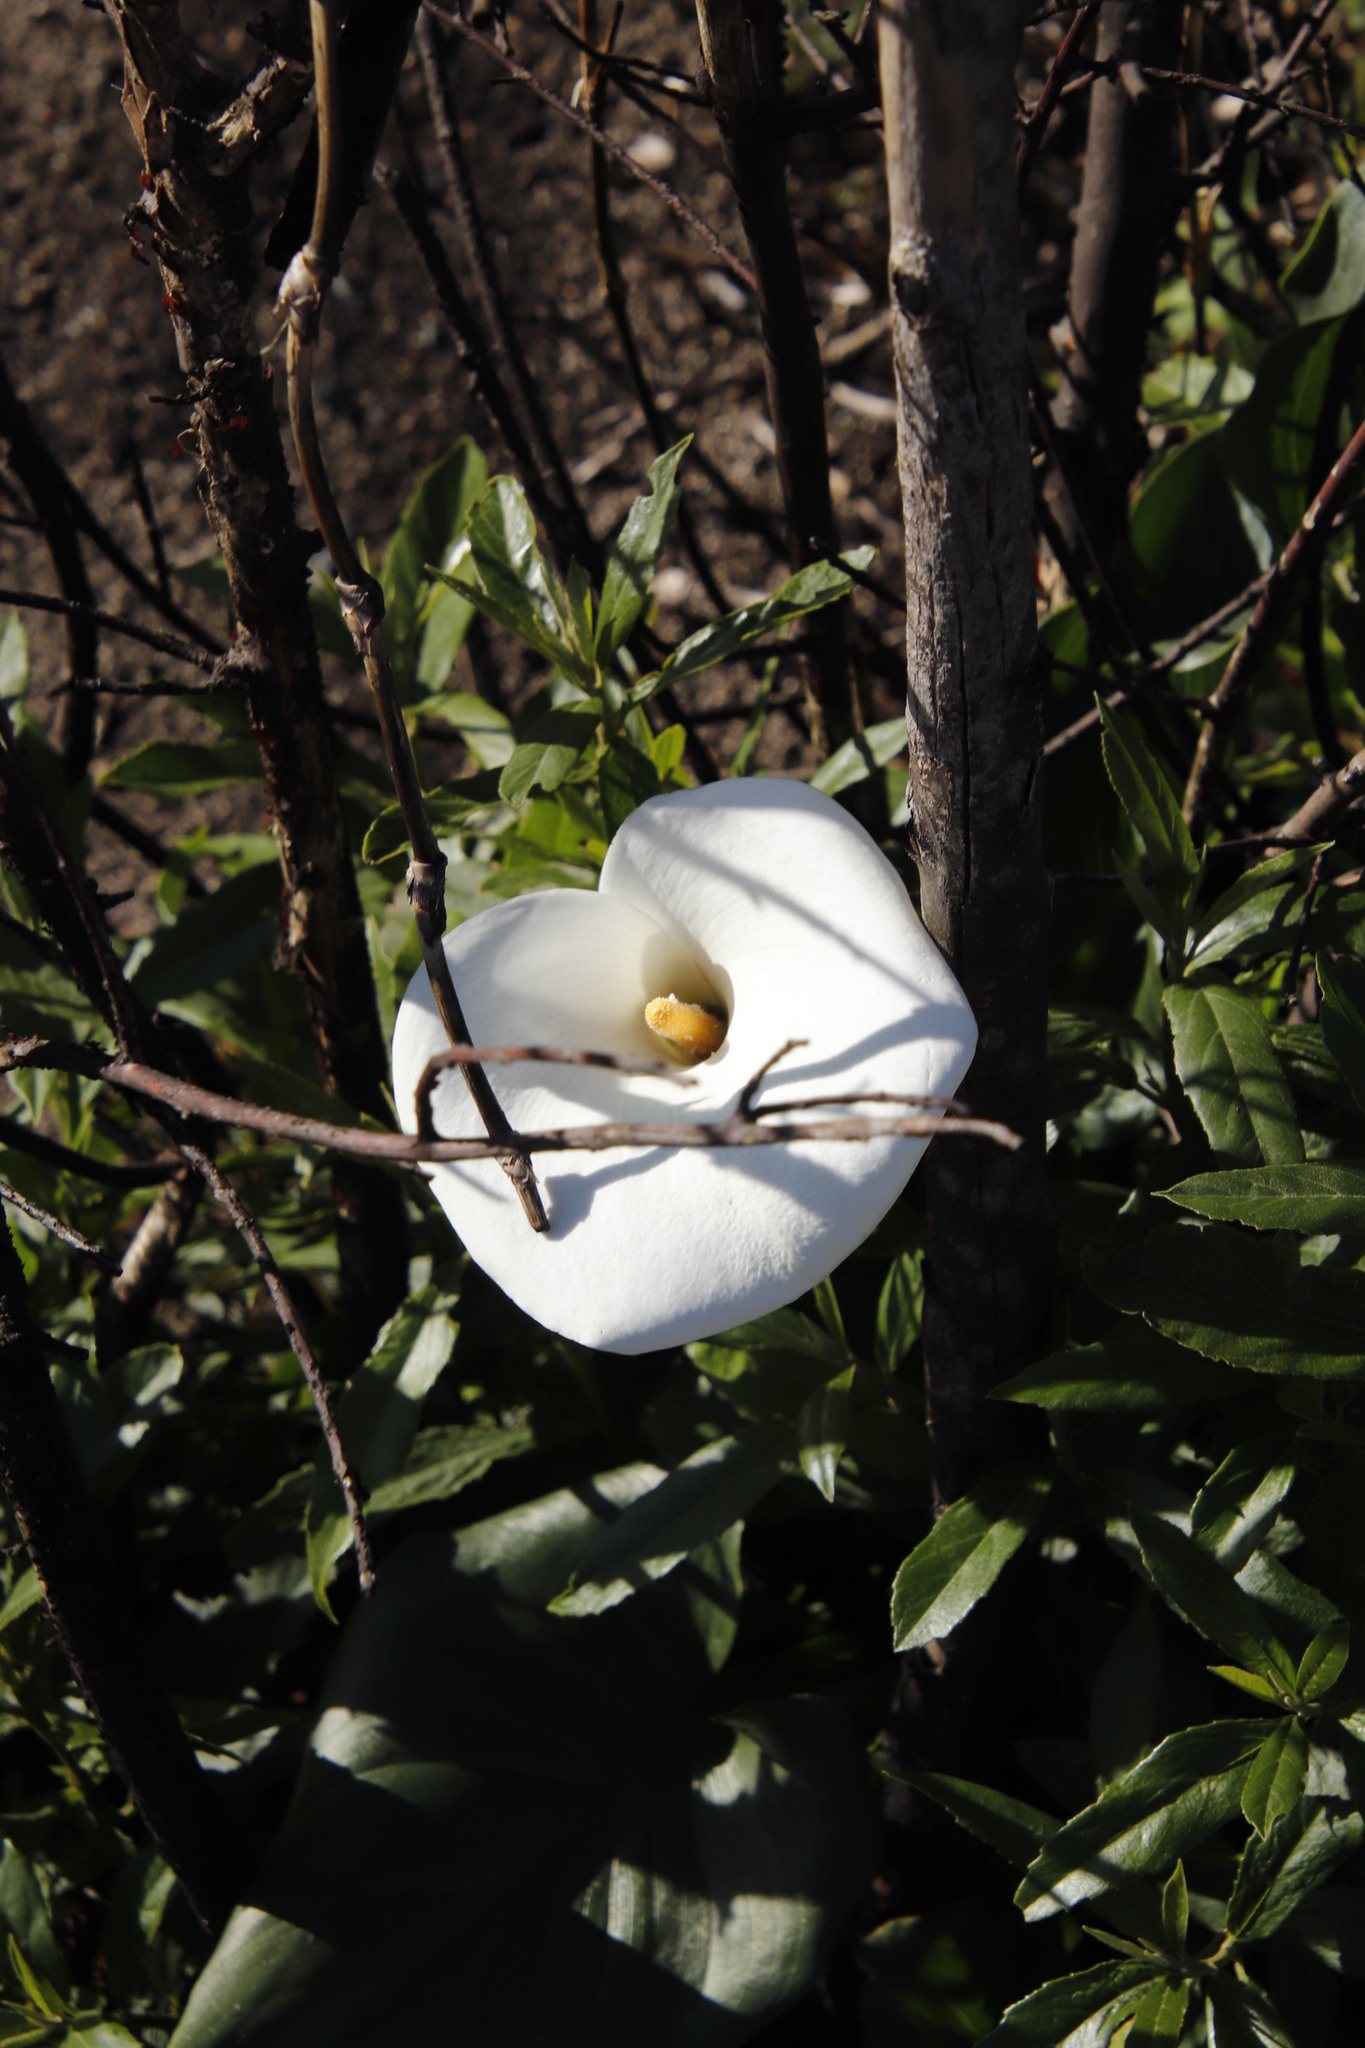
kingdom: Plantae
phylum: Tracheophyta
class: Liliopsida
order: Alismatales
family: Araceae
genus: Zantedeschia
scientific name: Zantedeschia aethiopica
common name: Altar-lily
